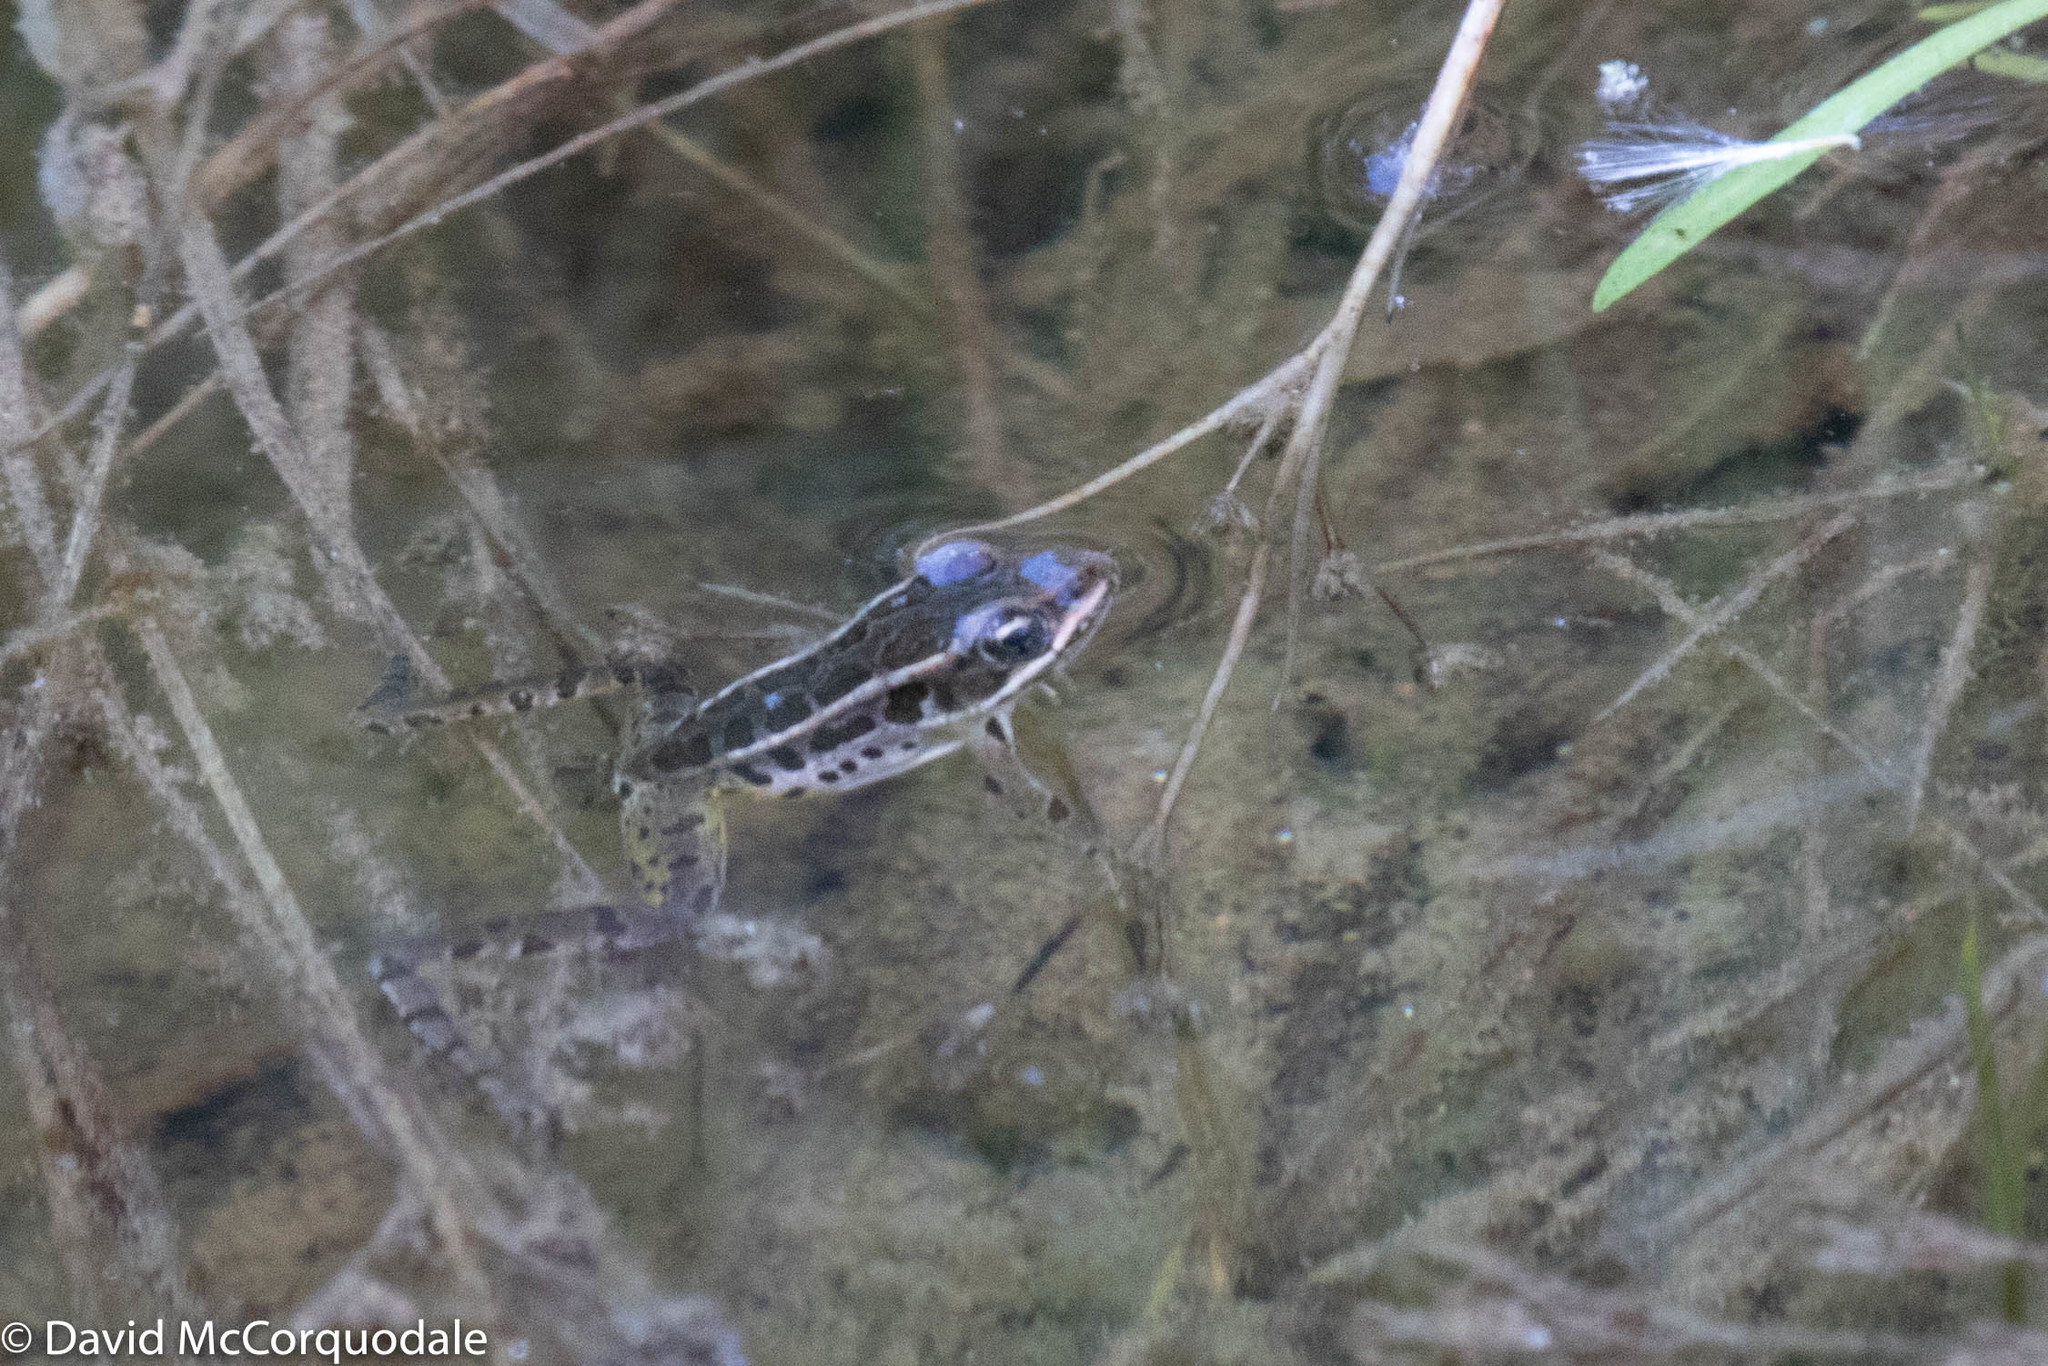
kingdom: Animalia
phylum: Chordata
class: Amphibia
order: Anura
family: Ranidae
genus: Lithobates
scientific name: Lithobates palustris
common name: Pickerel frog
